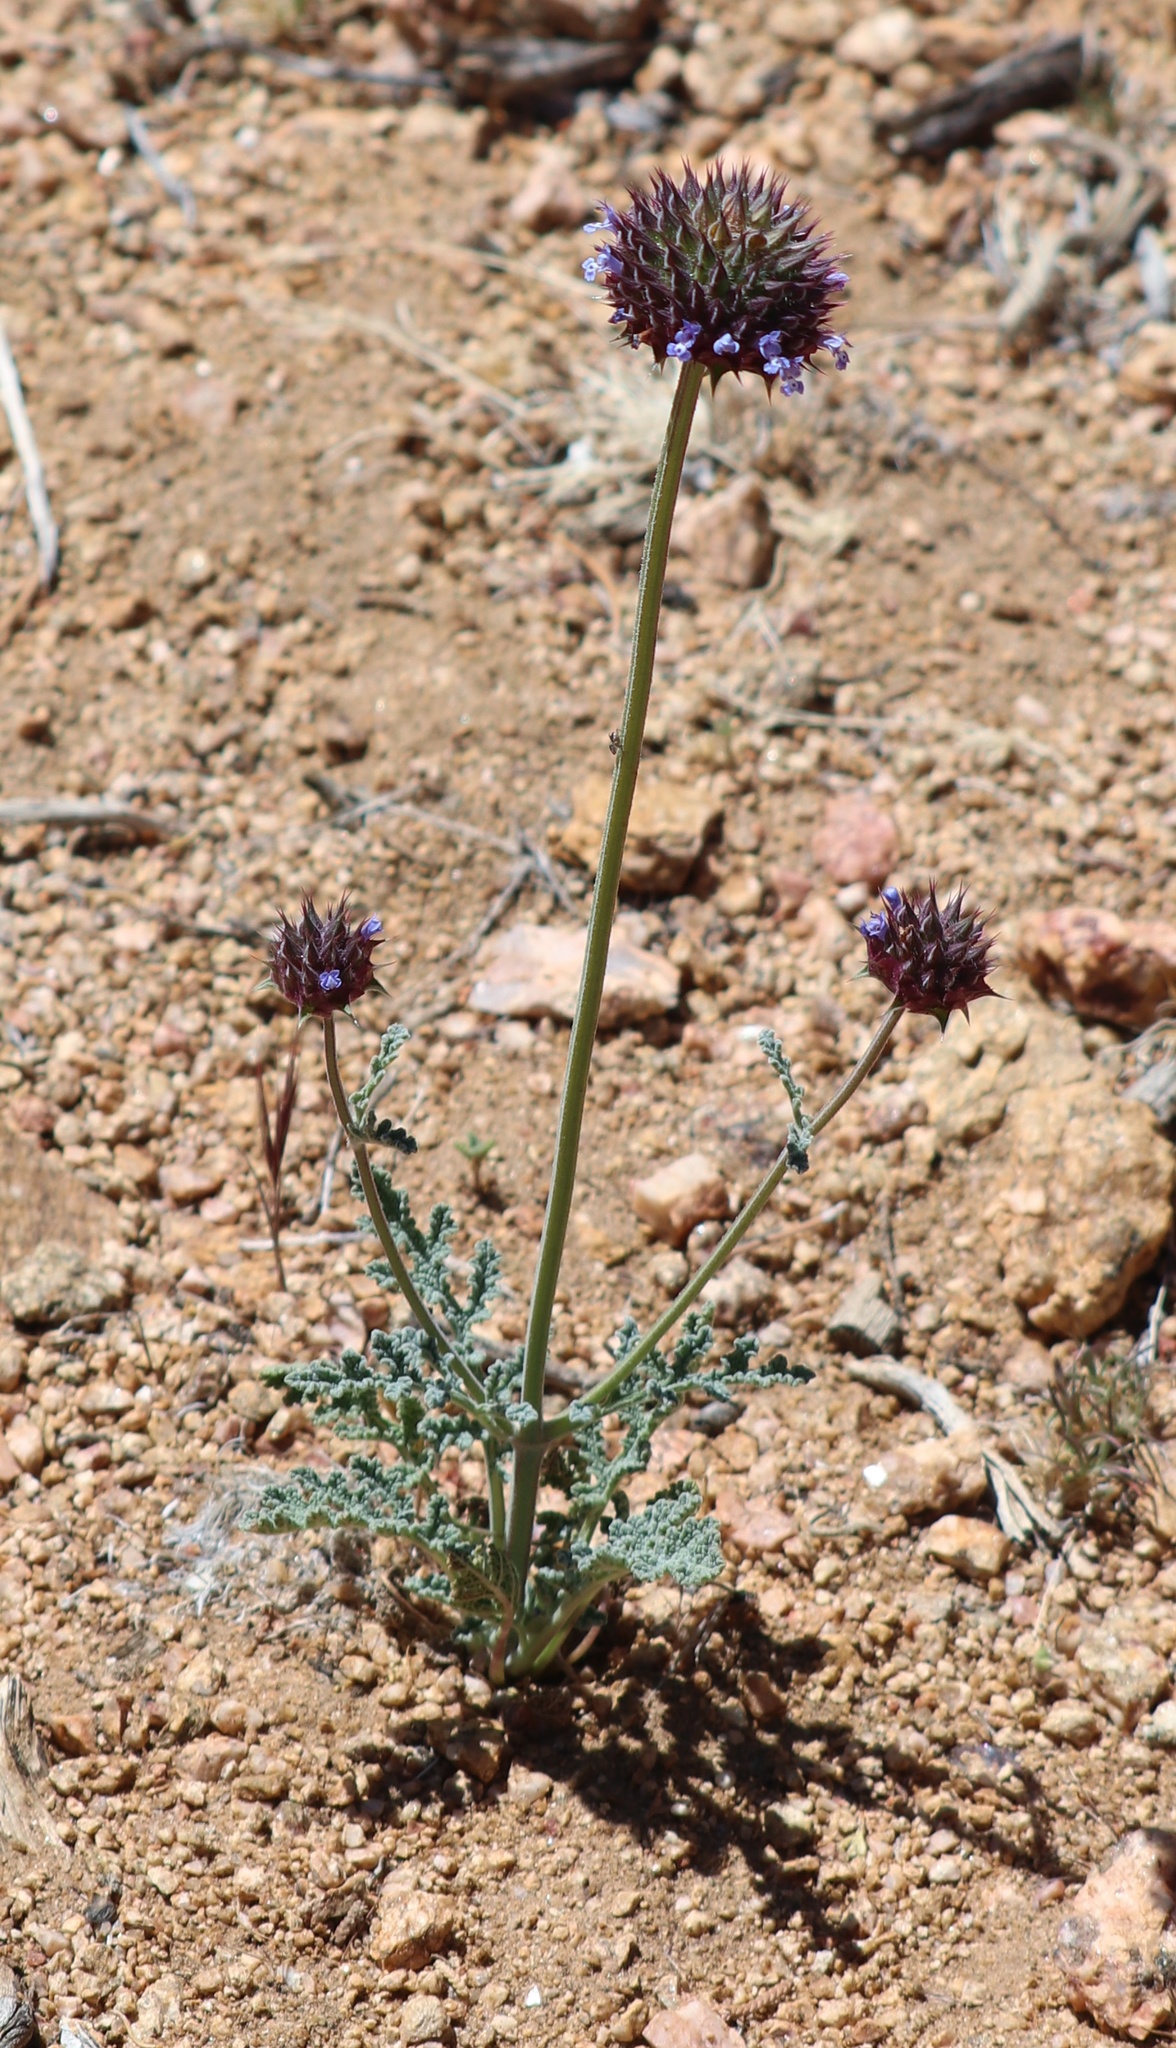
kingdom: Plantae
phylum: Tracheophyta
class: Magnoliopsida
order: Lamiales
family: Lamiaceae
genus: Salvia
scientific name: Salvia columbariae
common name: Chia
